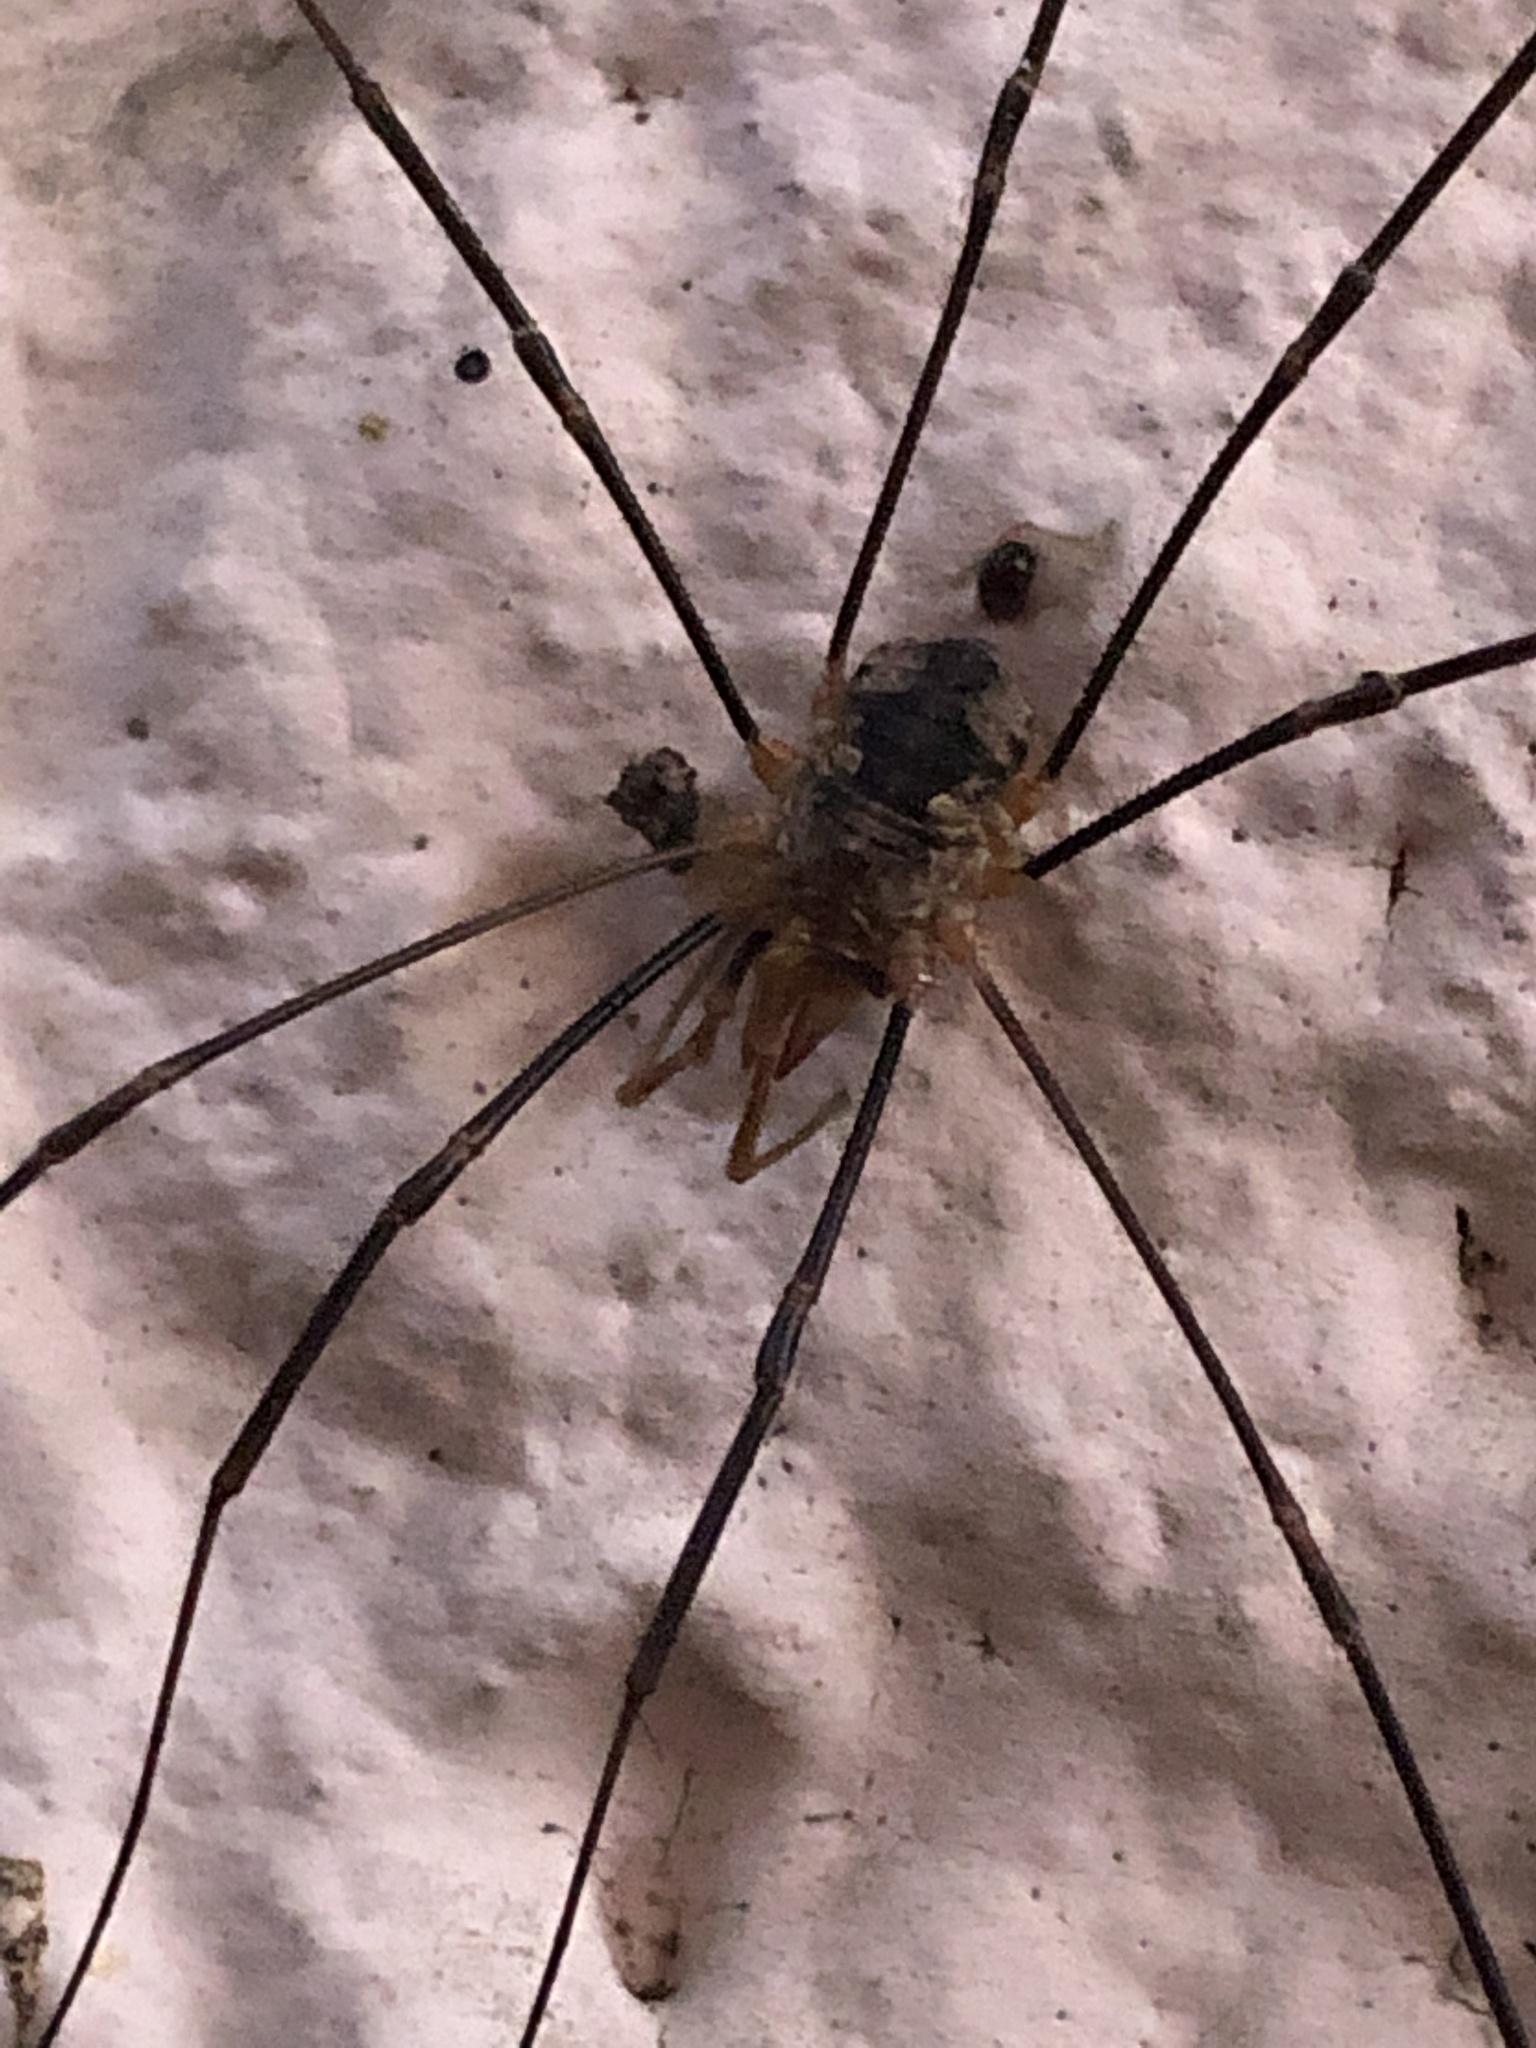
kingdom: Animalia
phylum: Arthropoda
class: Arachnida
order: Opiliones
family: Phalangiidae
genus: Phalangium
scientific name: Phalangium opilio
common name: Daddy longleg
